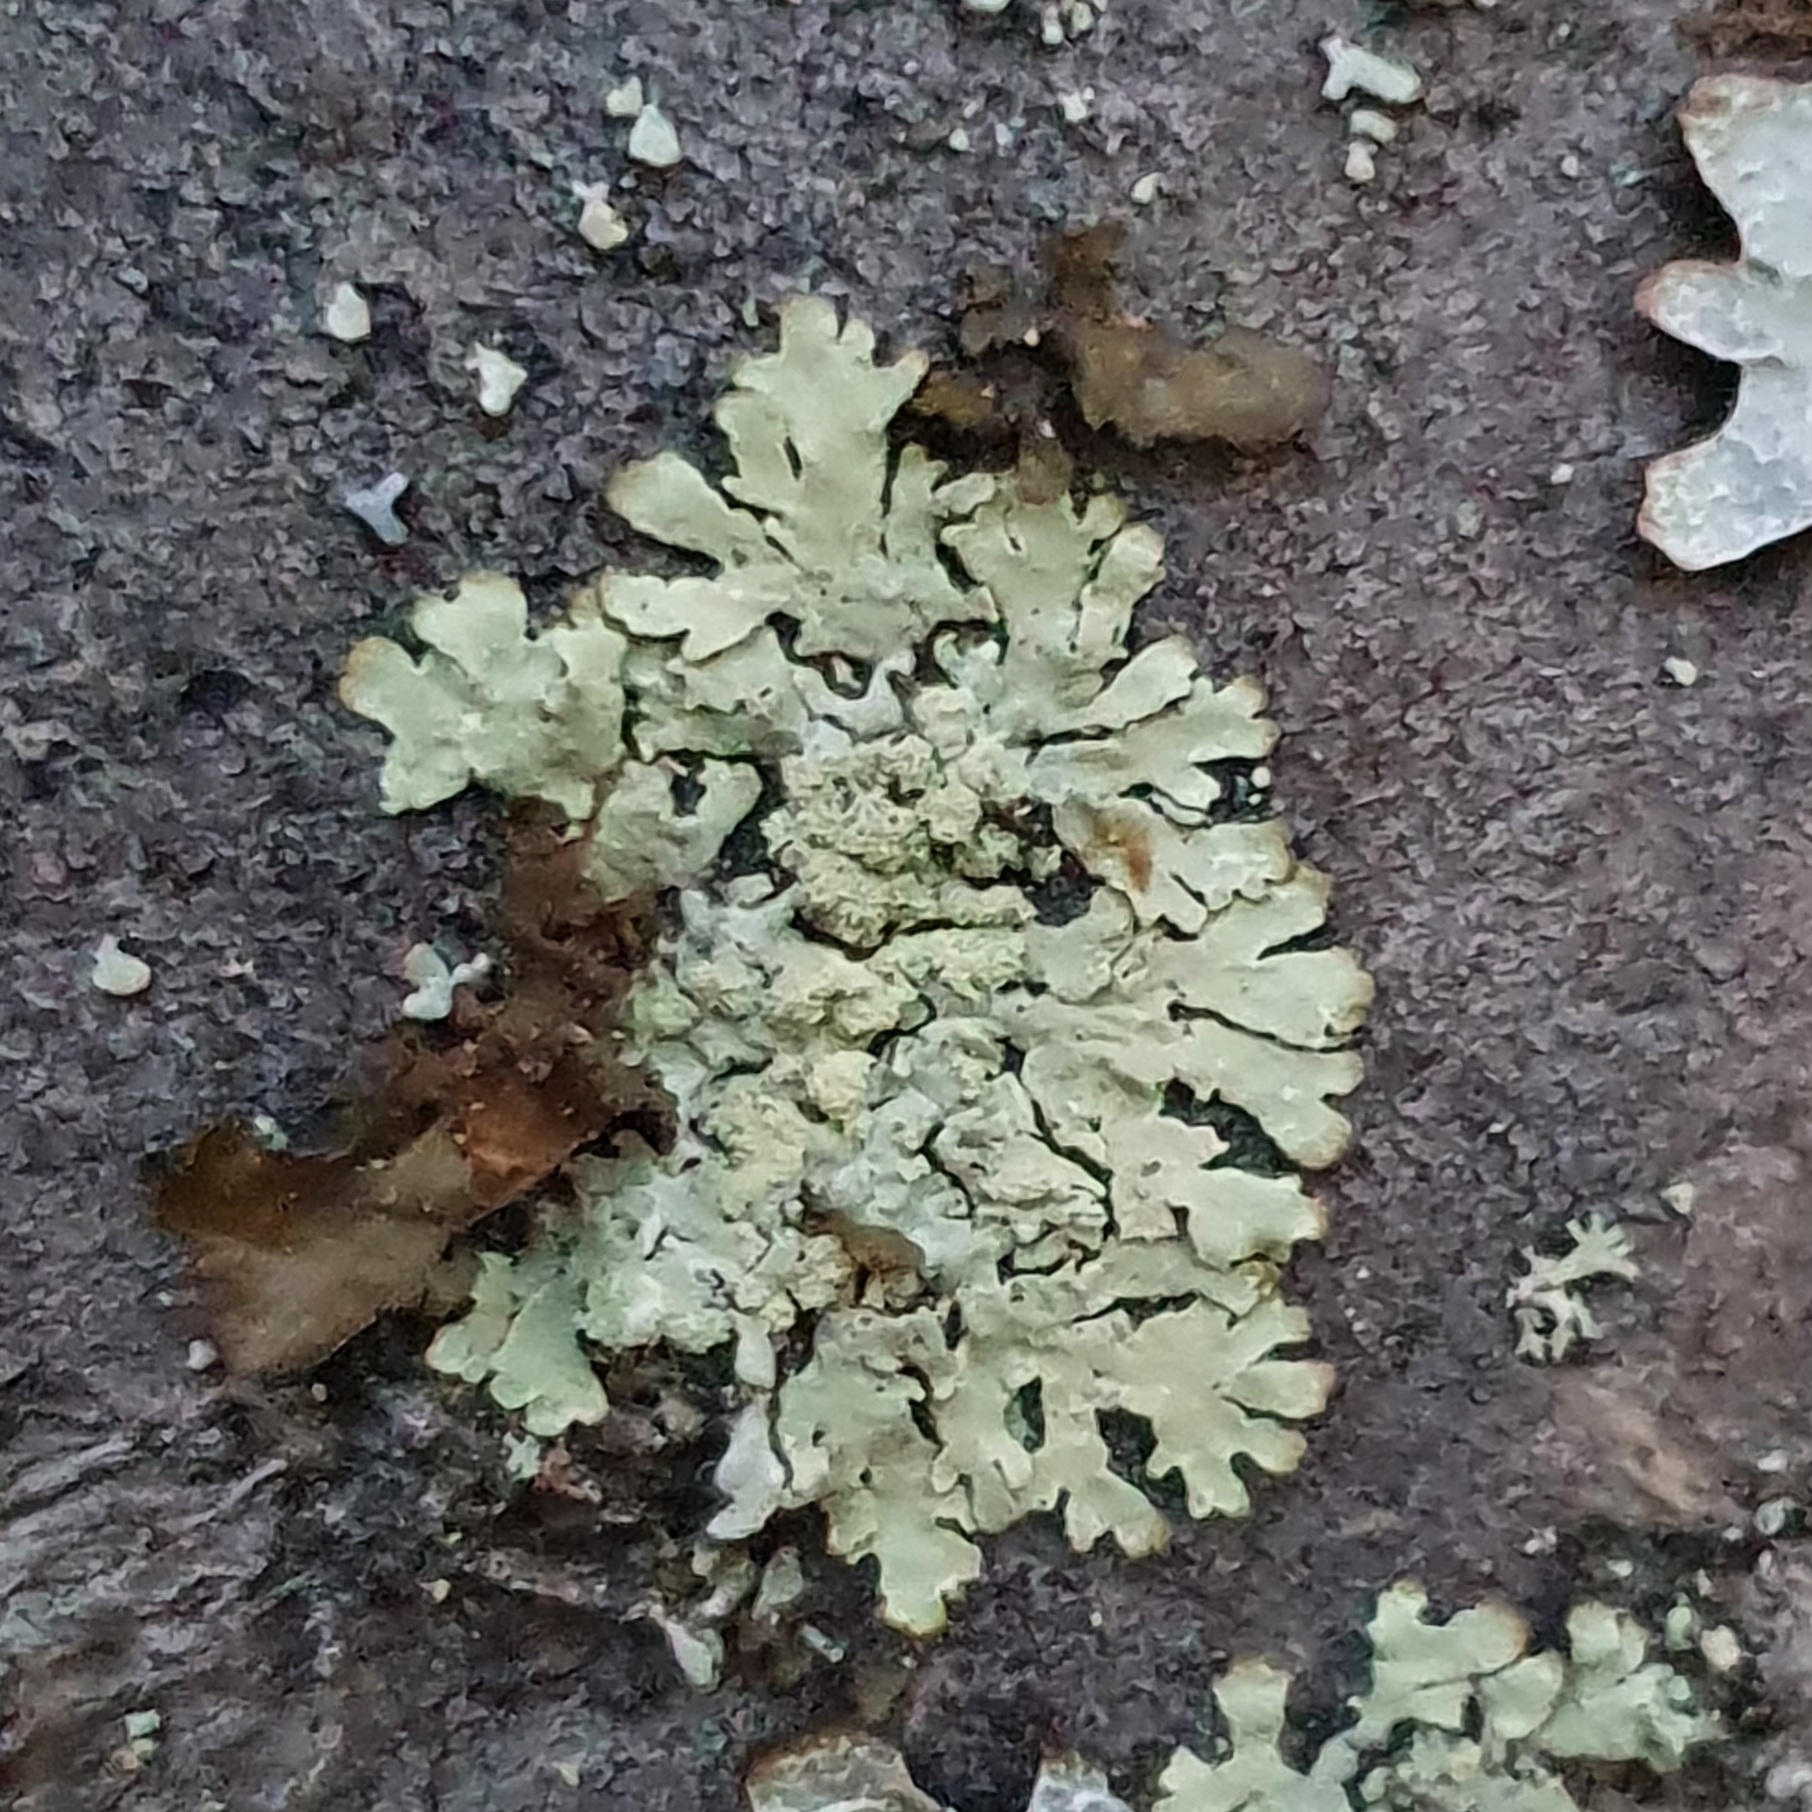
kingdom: Fungi
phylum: Ascomycota
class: Lecanoromycetes
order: Lecanorales
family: Parmeliaceae
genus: Parmeliopsis
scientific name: Parmeliopsis ambigua
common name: Green starburst lichen
